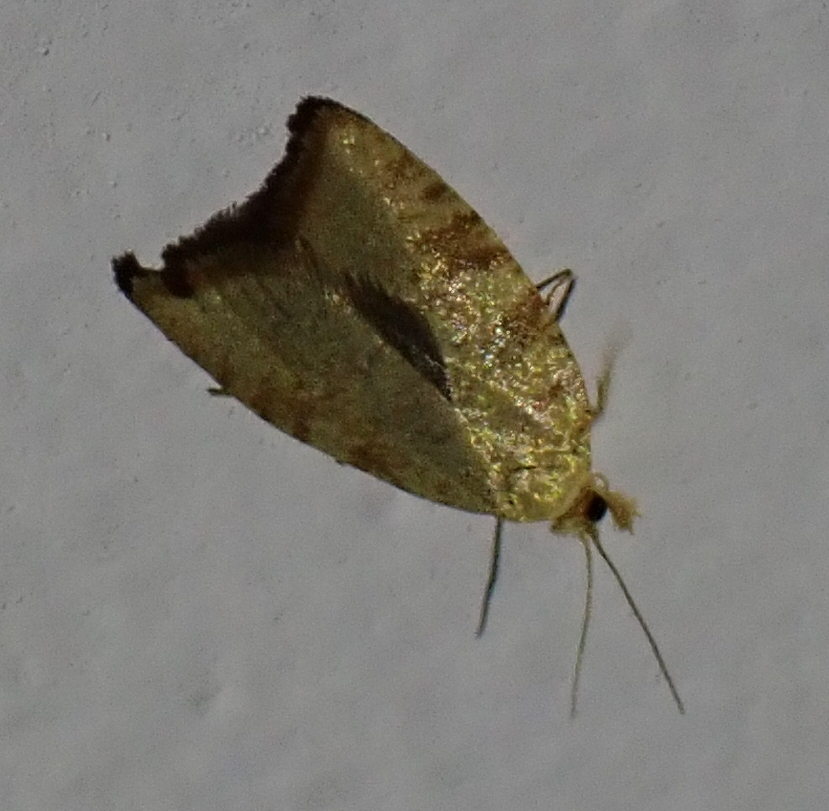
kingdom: Animalia
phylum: Arthropoda
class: Insecta
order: Lepidoptera
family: Tortricidae
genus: Aleimma
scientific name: Aleimma loeflingiana
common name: Yellow oak button
